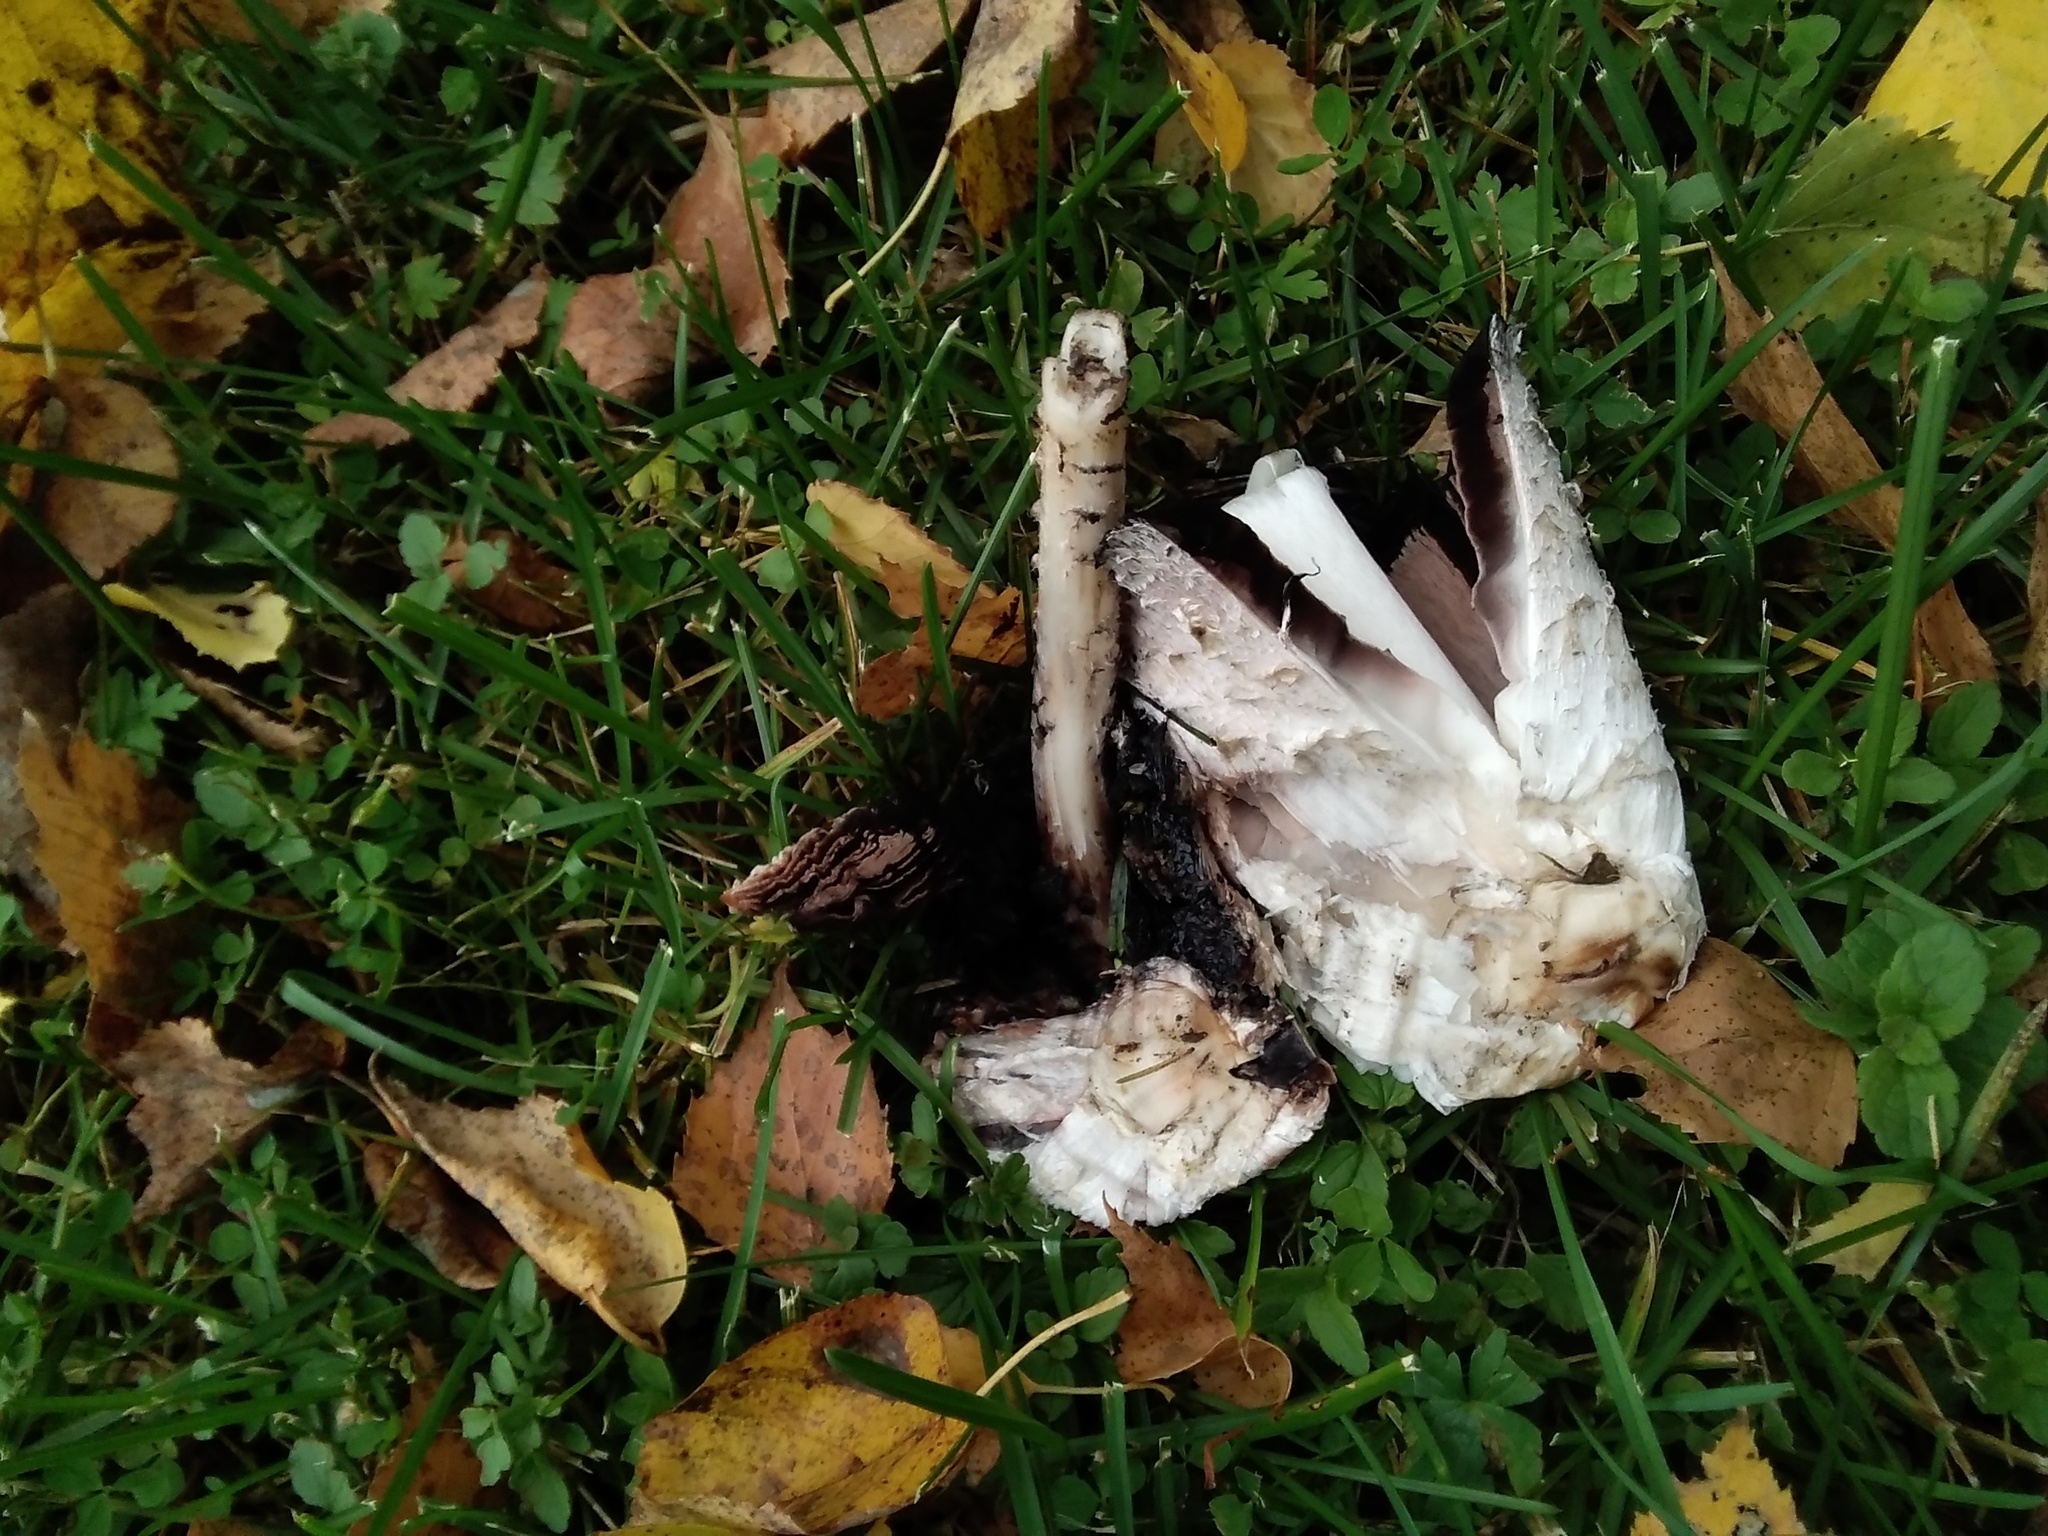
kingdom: Fungi
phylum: Basidiomycota
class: Agaricomycetes
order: Agaricales
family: Agaricaceae
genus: Coprinus
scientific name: Coprinus comatus
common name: Lawyer's wig
